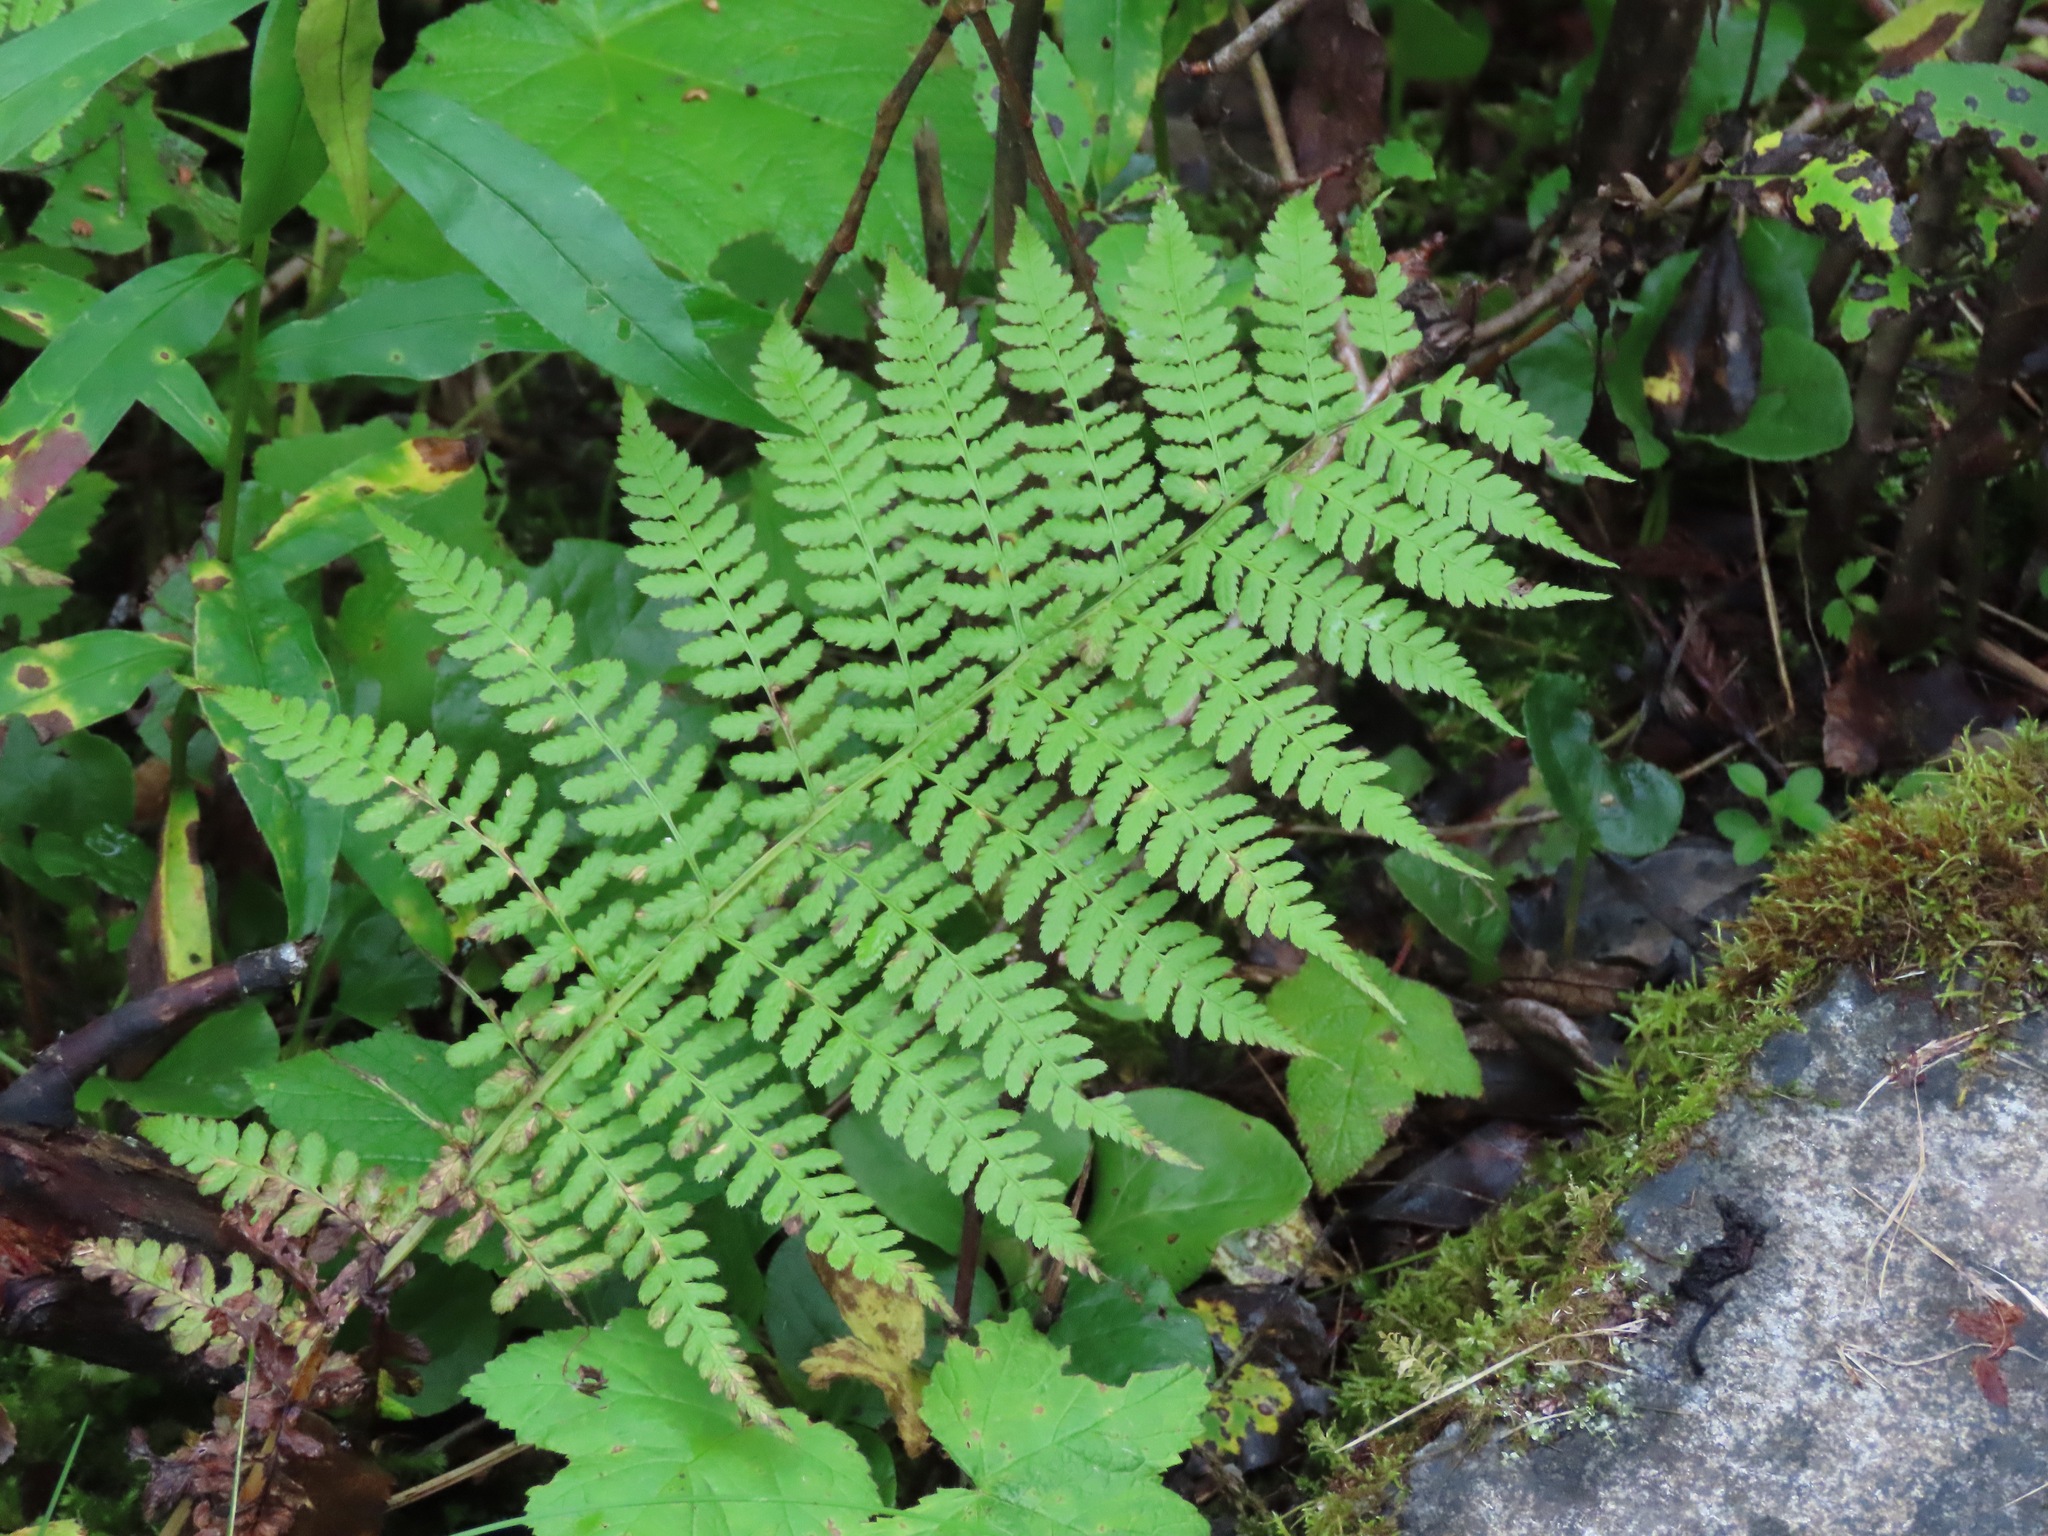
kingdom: Plantae
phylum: Tracheophyta
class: Polypodiopsida
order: Polypodiales
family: Athyriaceae
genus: Athyrium
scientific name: Athyrium filix-femina
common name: Lady fern
